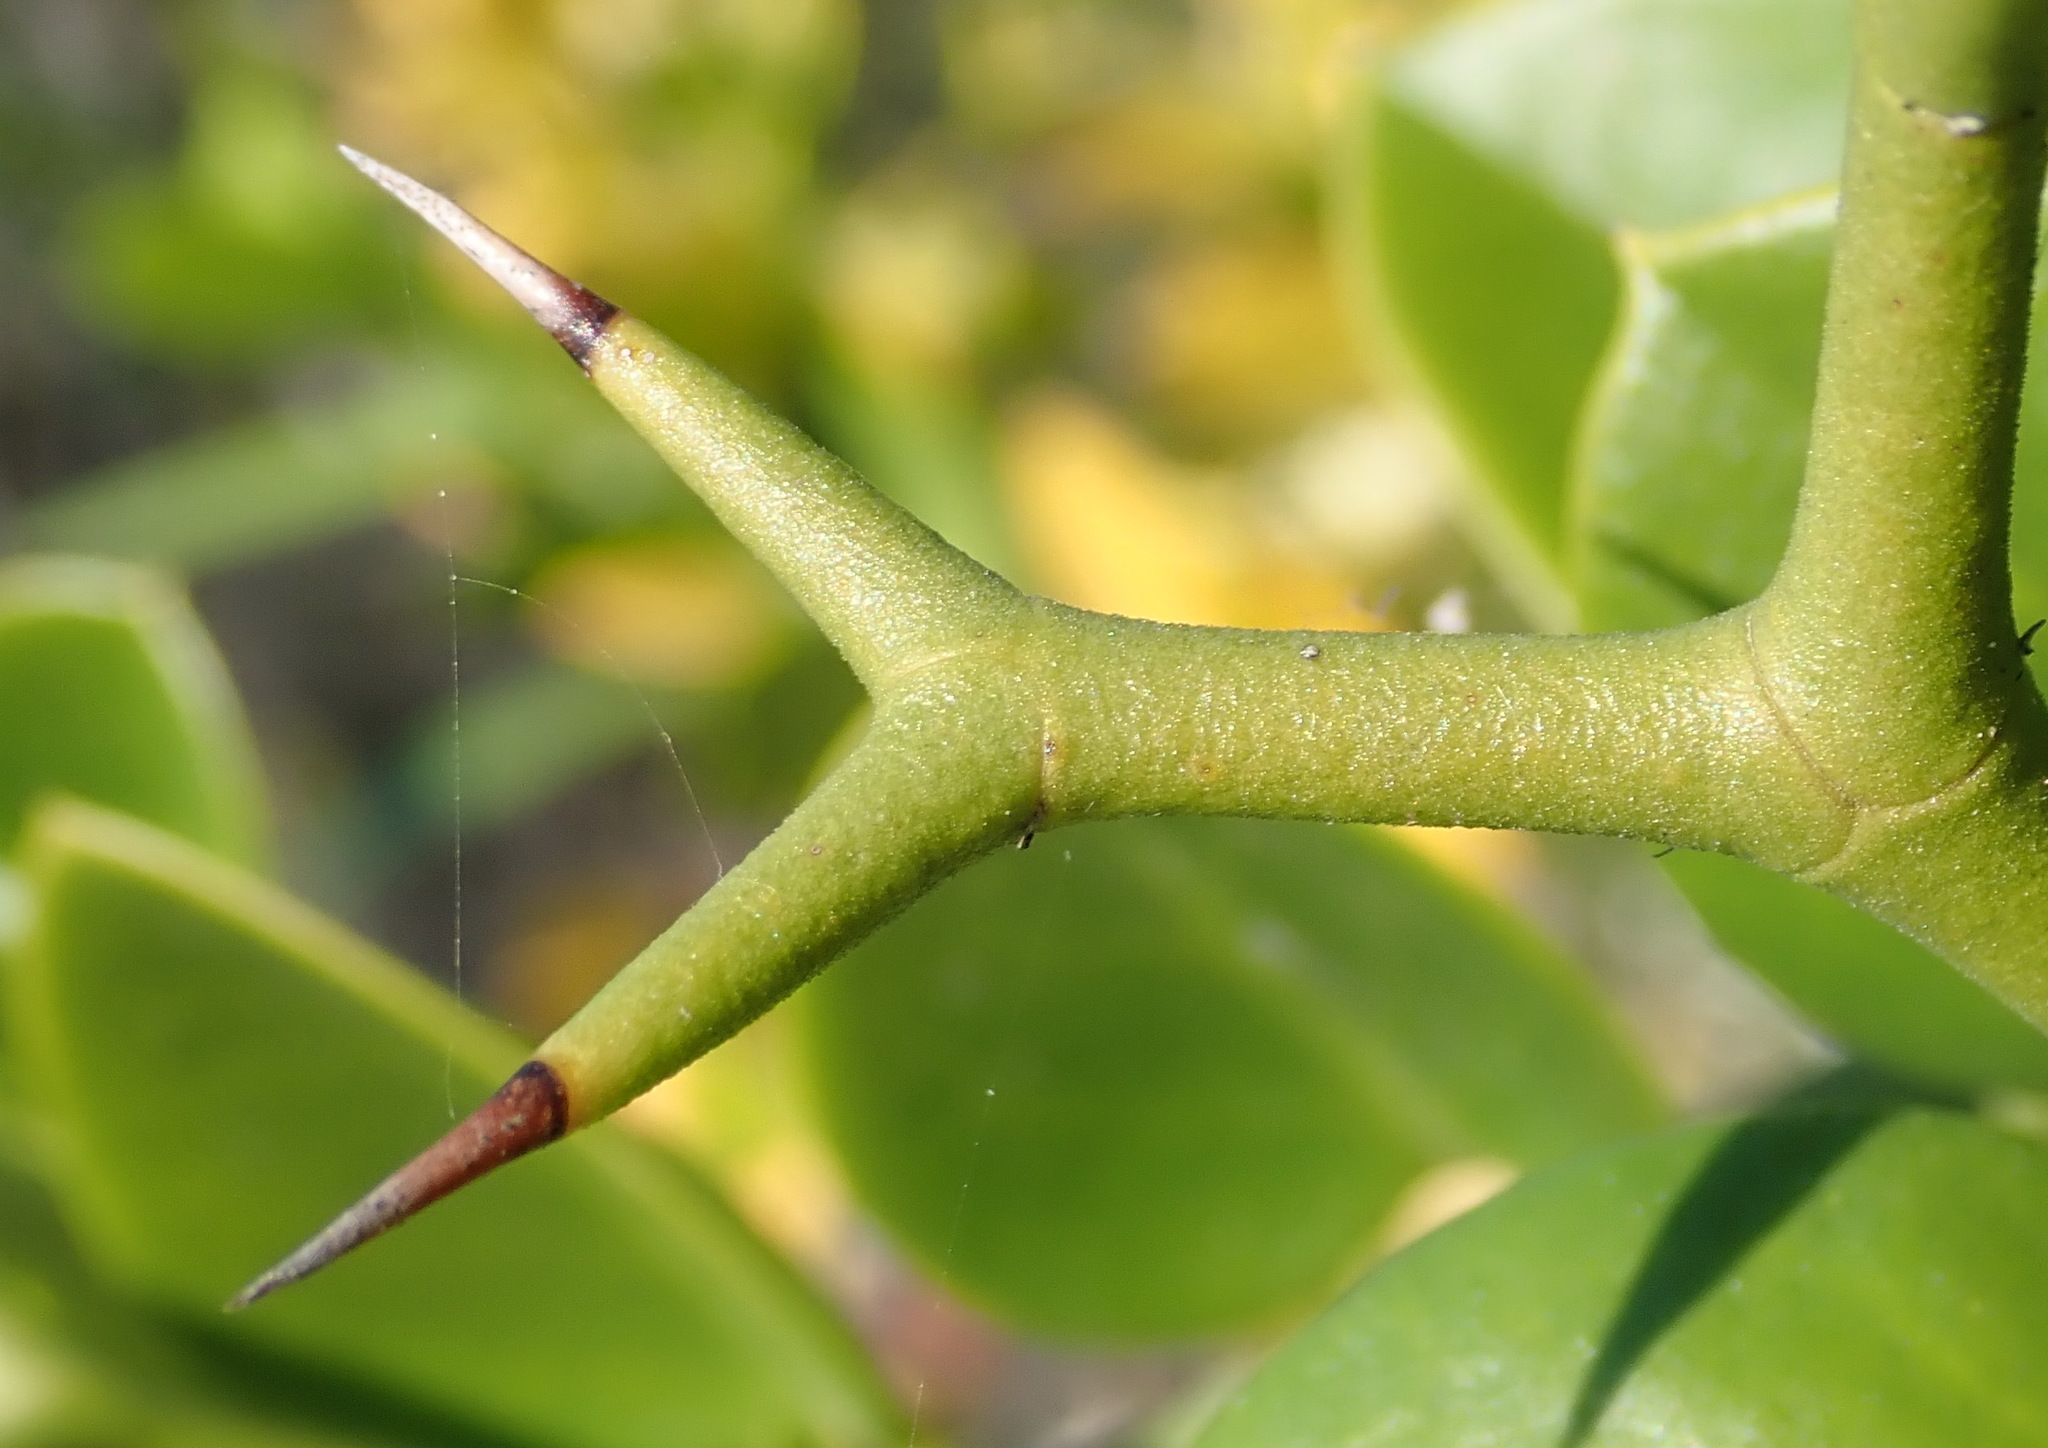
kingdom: Plantae
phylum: Tracheophyta
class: Magnoliopsida
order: Gentianales
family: Apocynaceae
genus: Carissa
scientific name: Carissa bispinosa
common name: Forest num-num
